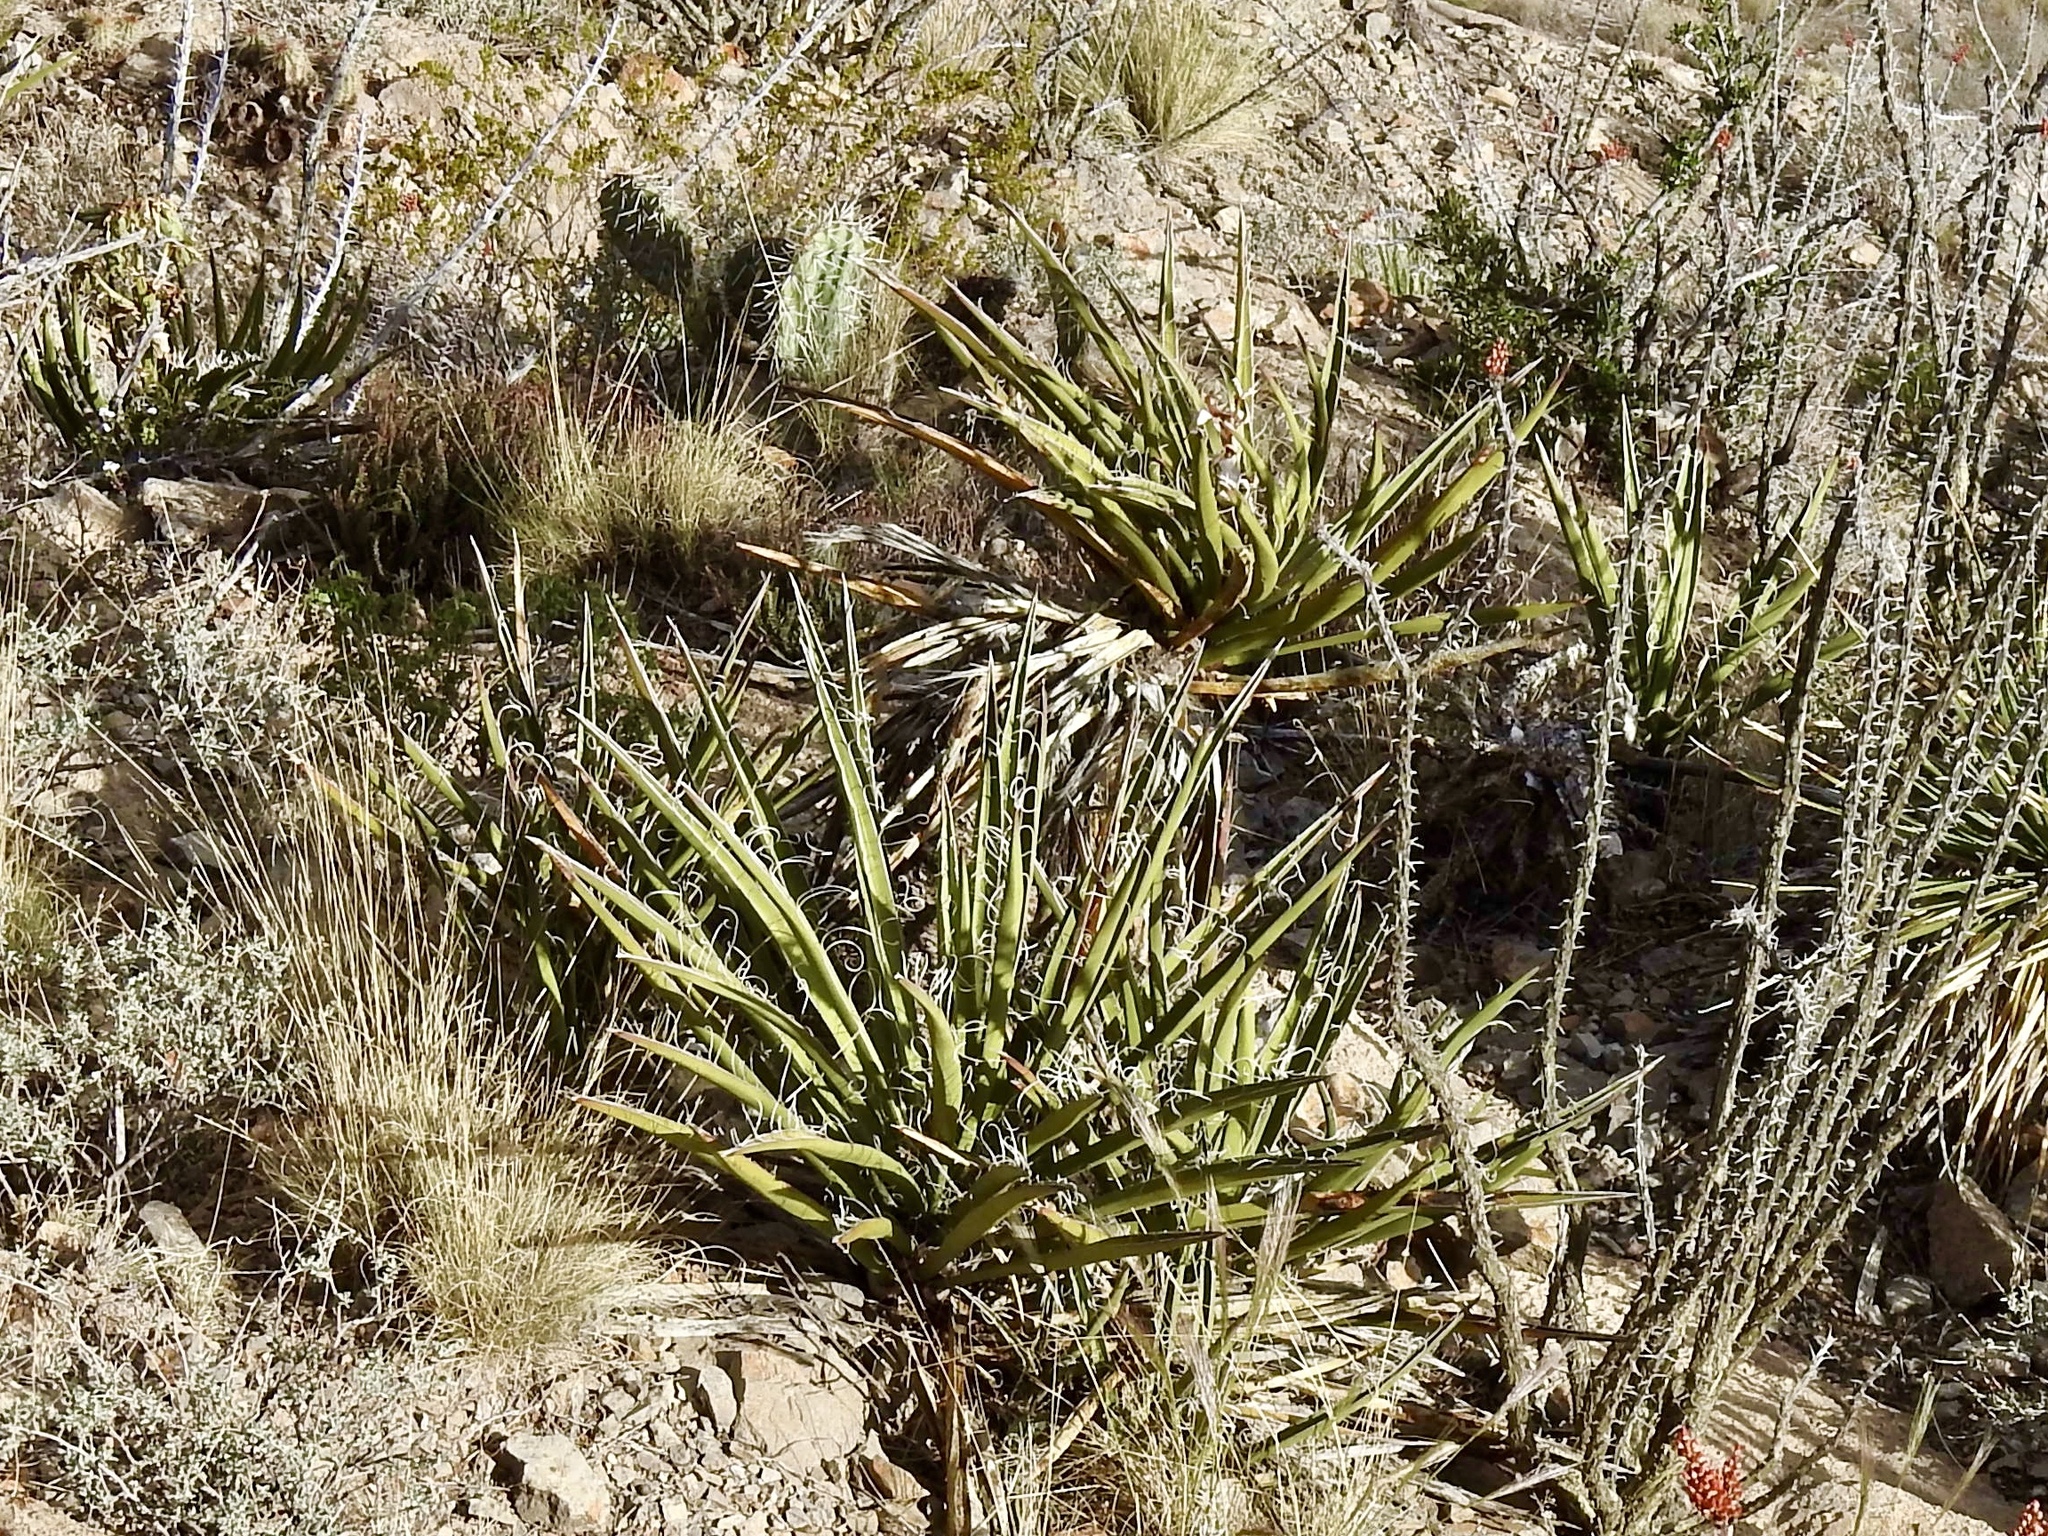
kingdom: Plantae
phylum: Tracheophyta
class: Liliopsida
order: Asparagales
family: Asparagaceae
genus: Yucca
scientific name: Yucca baccata
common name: Banana yucca
